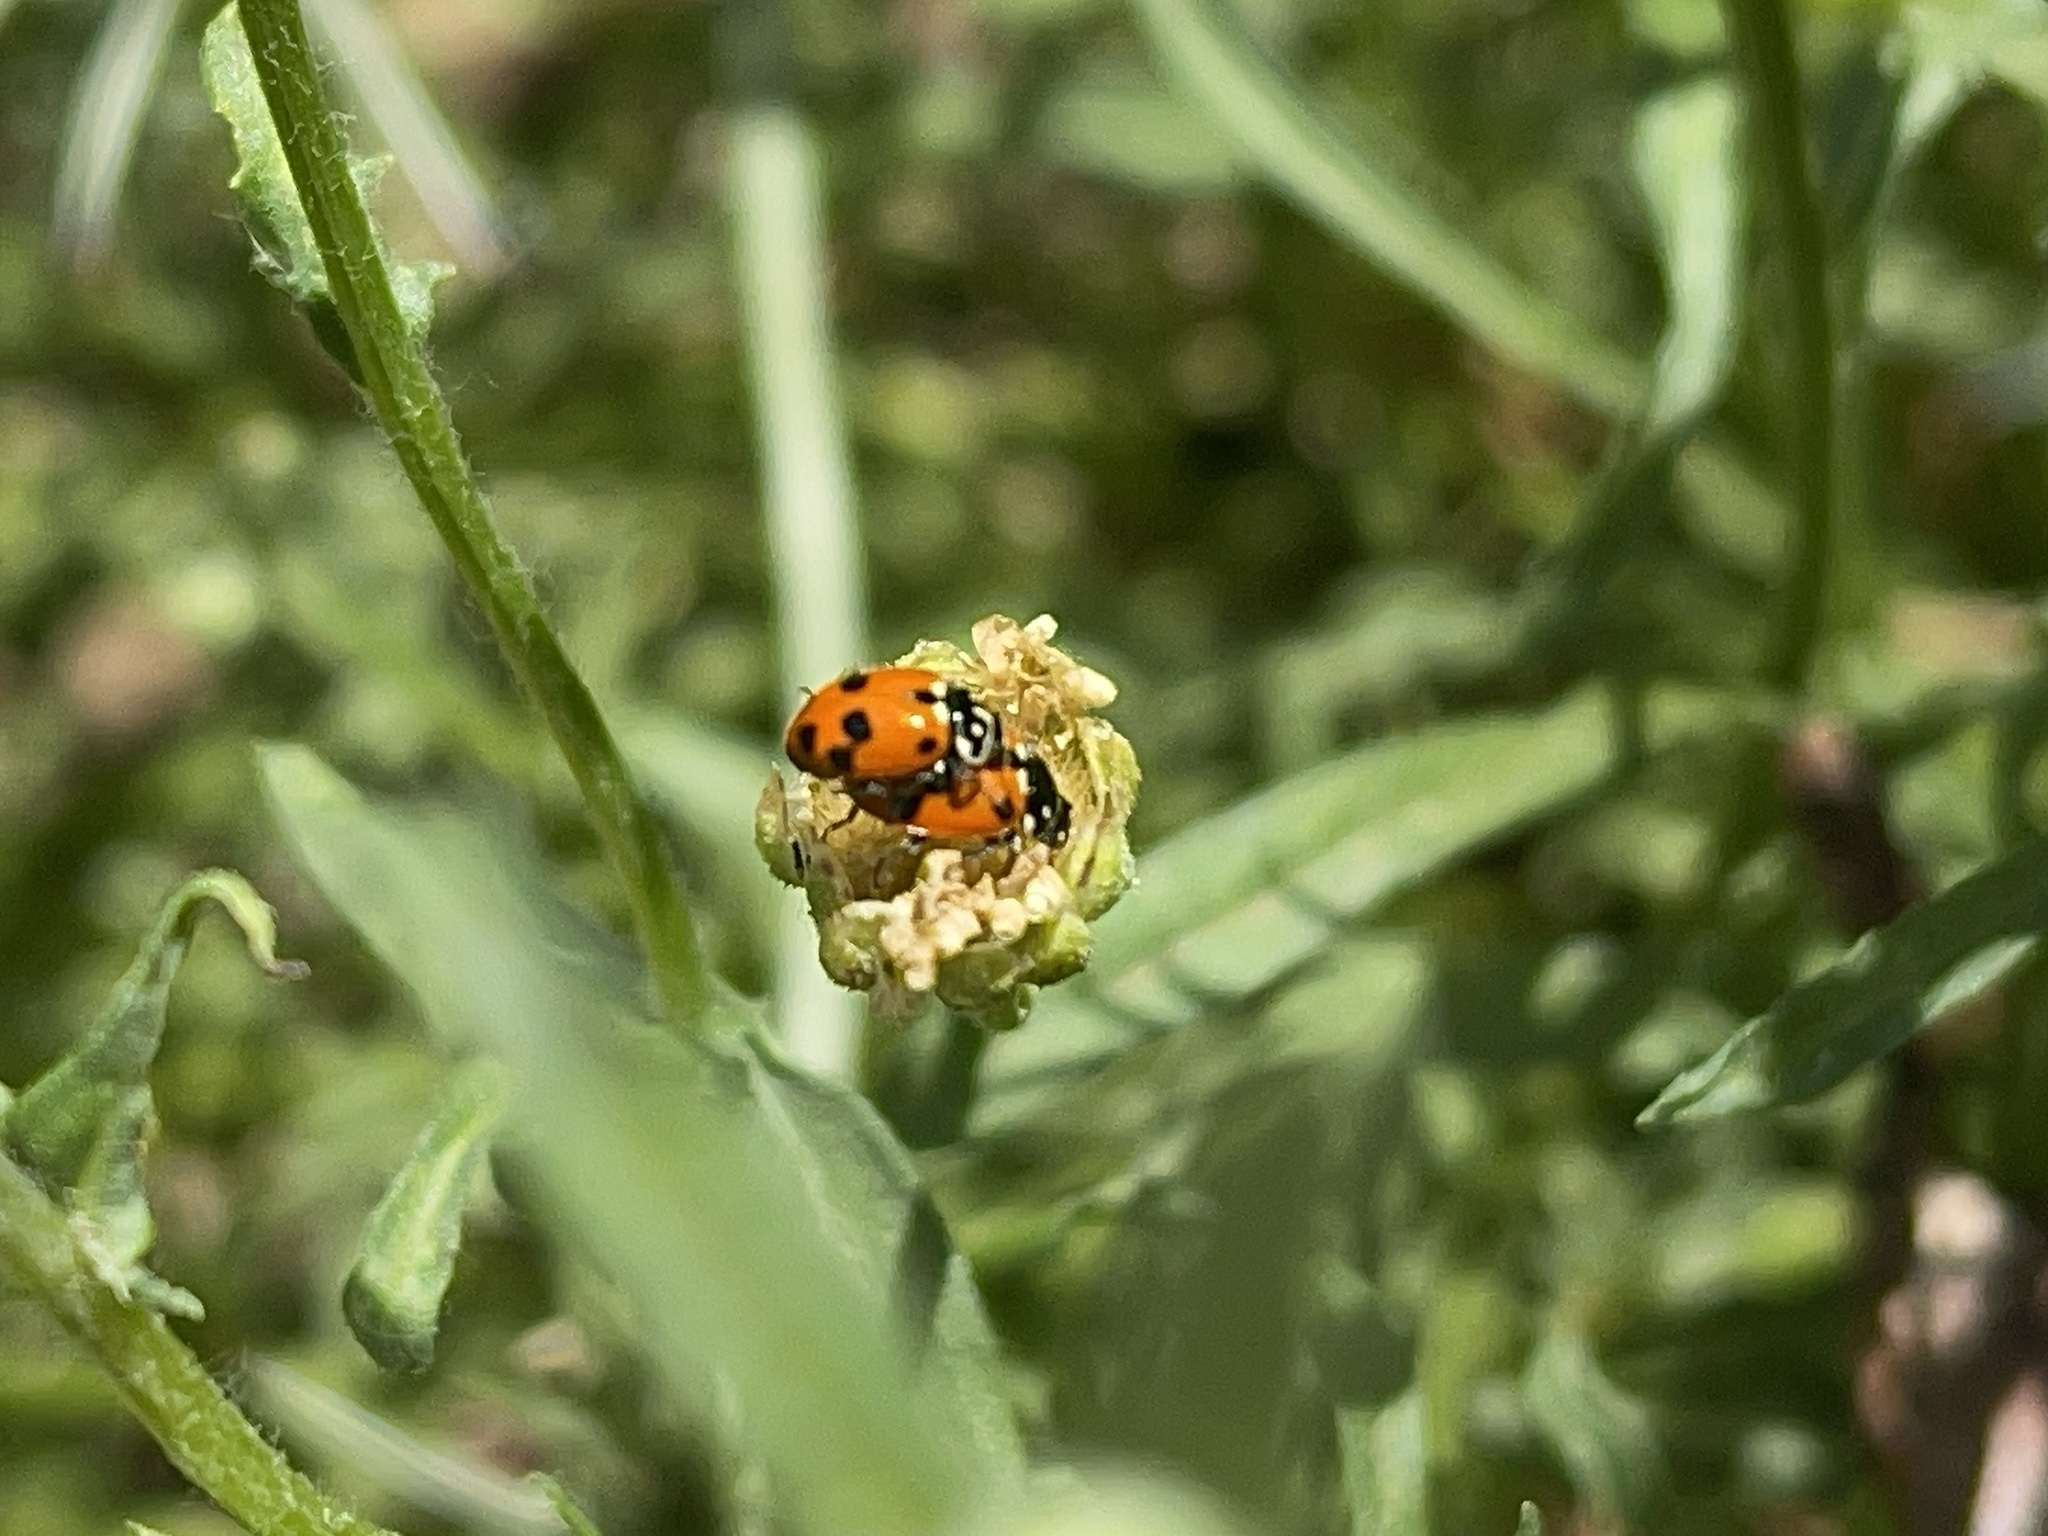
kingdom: Animalia
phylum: Arthropoda
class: Insecta
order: Coleoptera
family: Coccinellidae
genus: Hippodamia
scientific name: Hippodamia variegata
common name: Ladybird beetle
